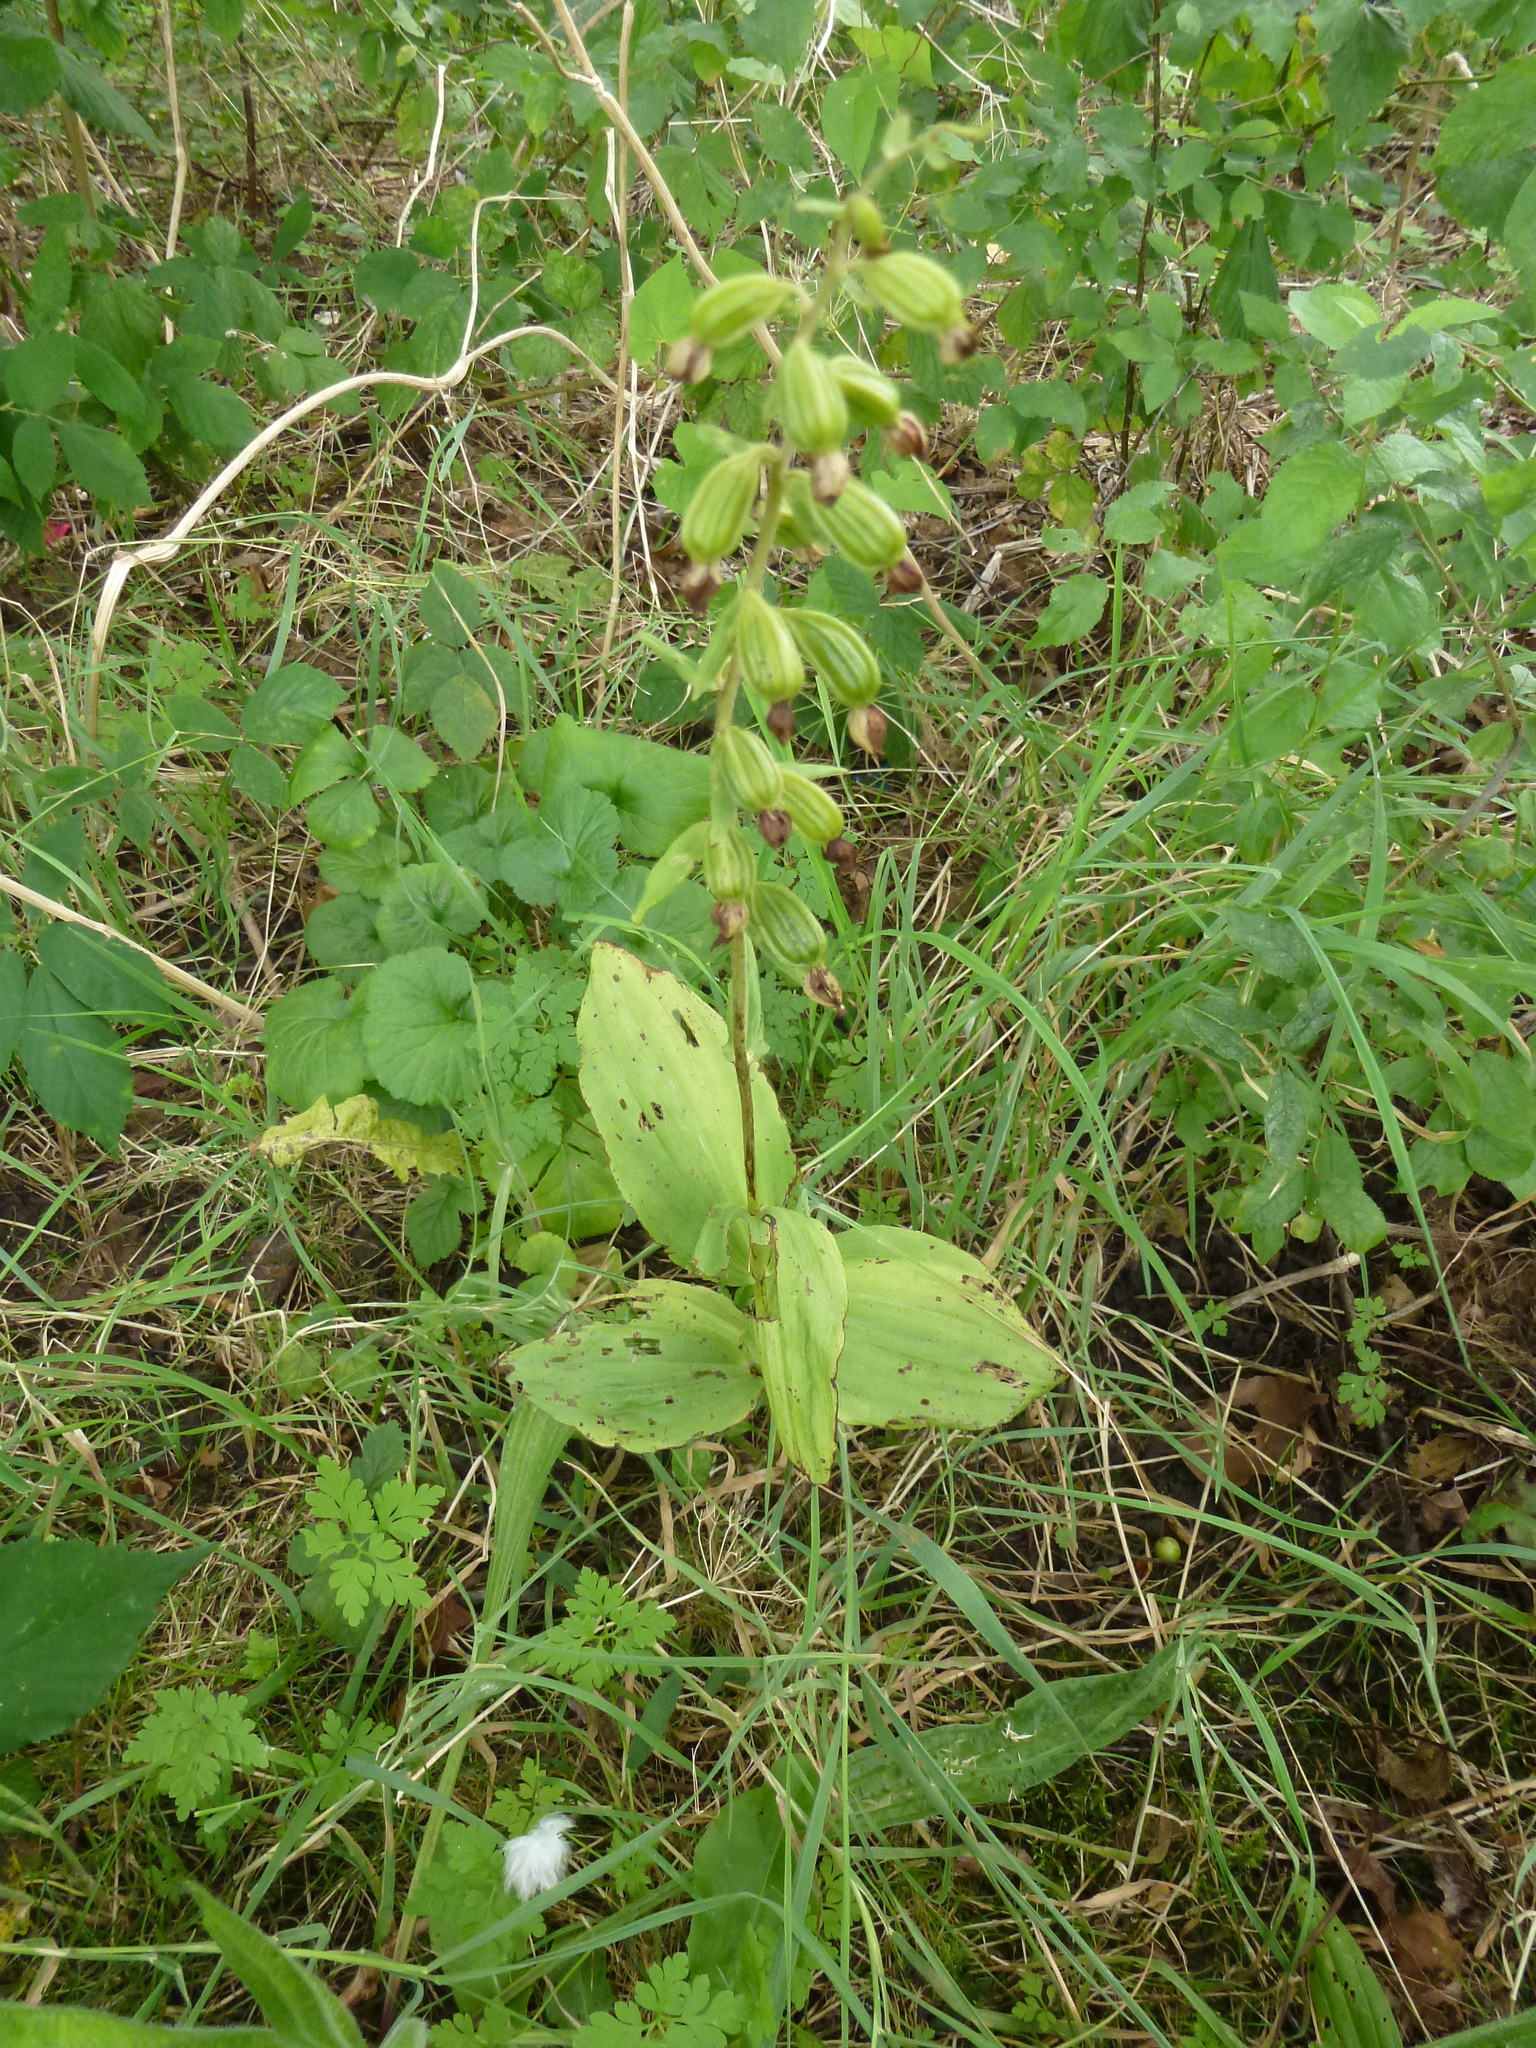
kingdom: Plantae
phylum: Tracheophyta
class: Liliopsida
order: Asparagales
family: Orchidaceae
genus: Epipactis
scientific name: Epipactis helleborine
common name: Broad-leaved helleborine
